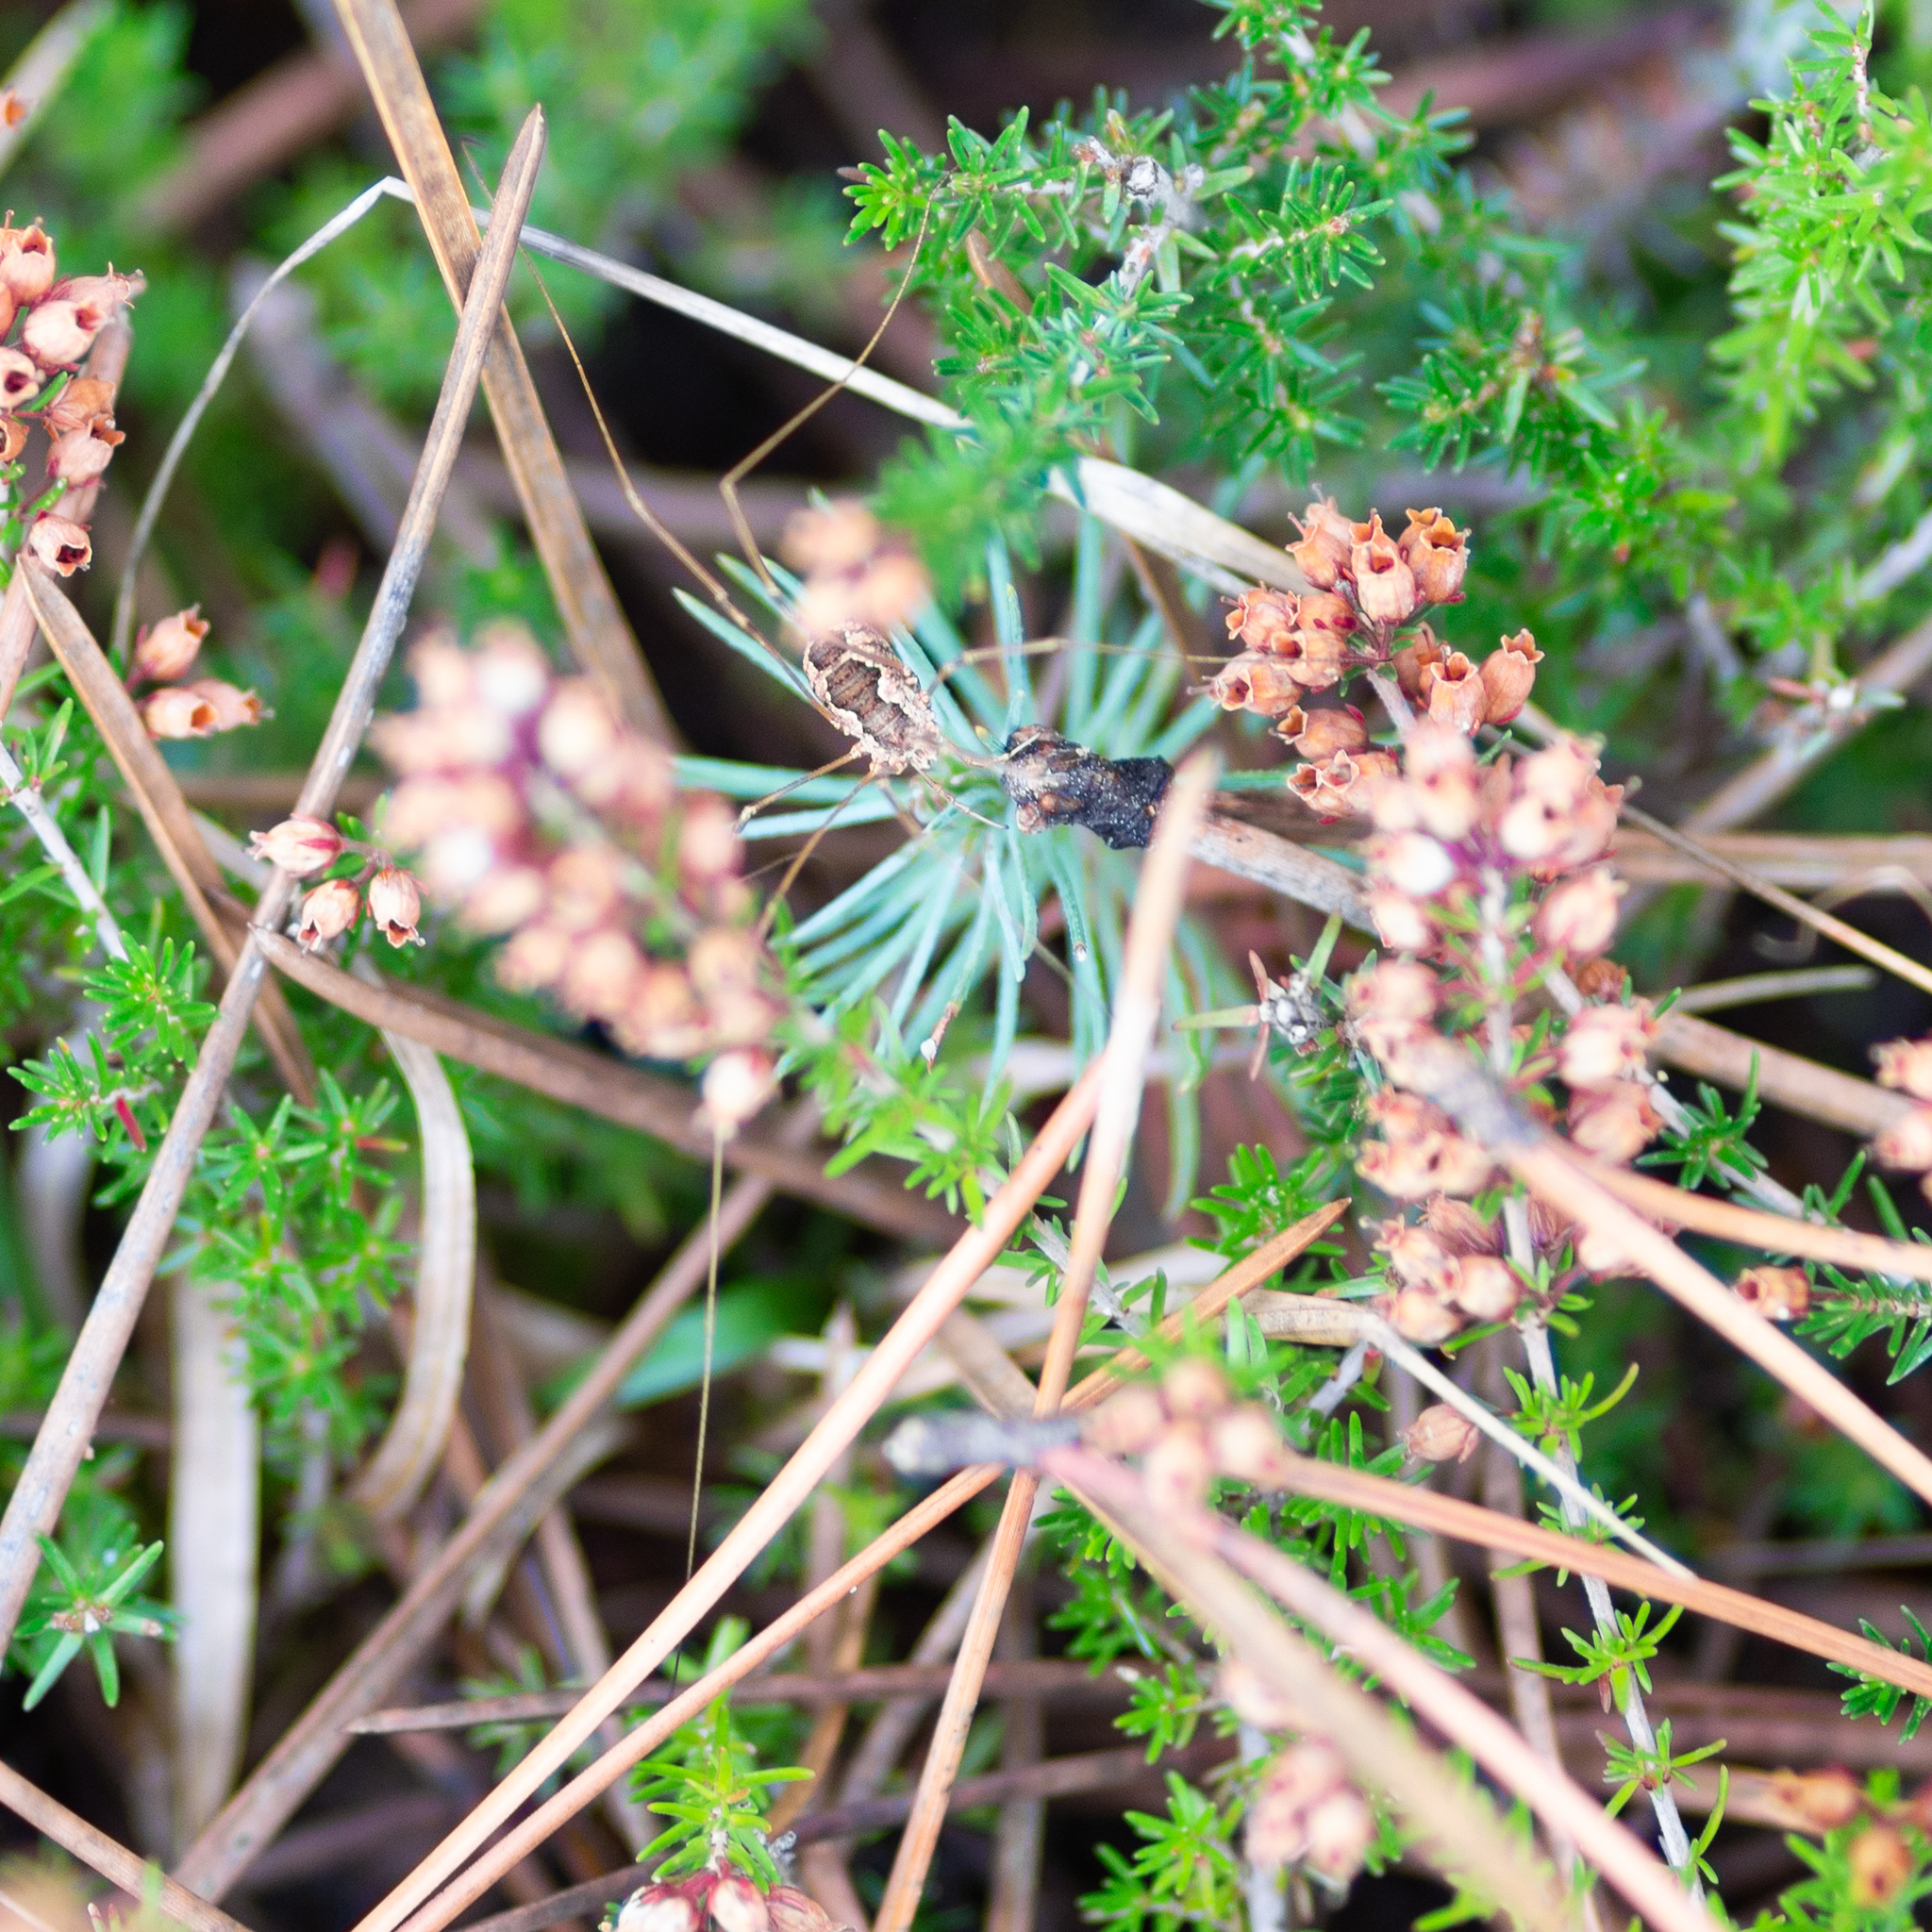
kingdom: Animalia
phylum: Arthropoda
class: Arachnida
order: Opiliones
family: Phalangiidae
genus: Phalangium
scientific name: Phalangium opilio
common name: Daddy longleg
